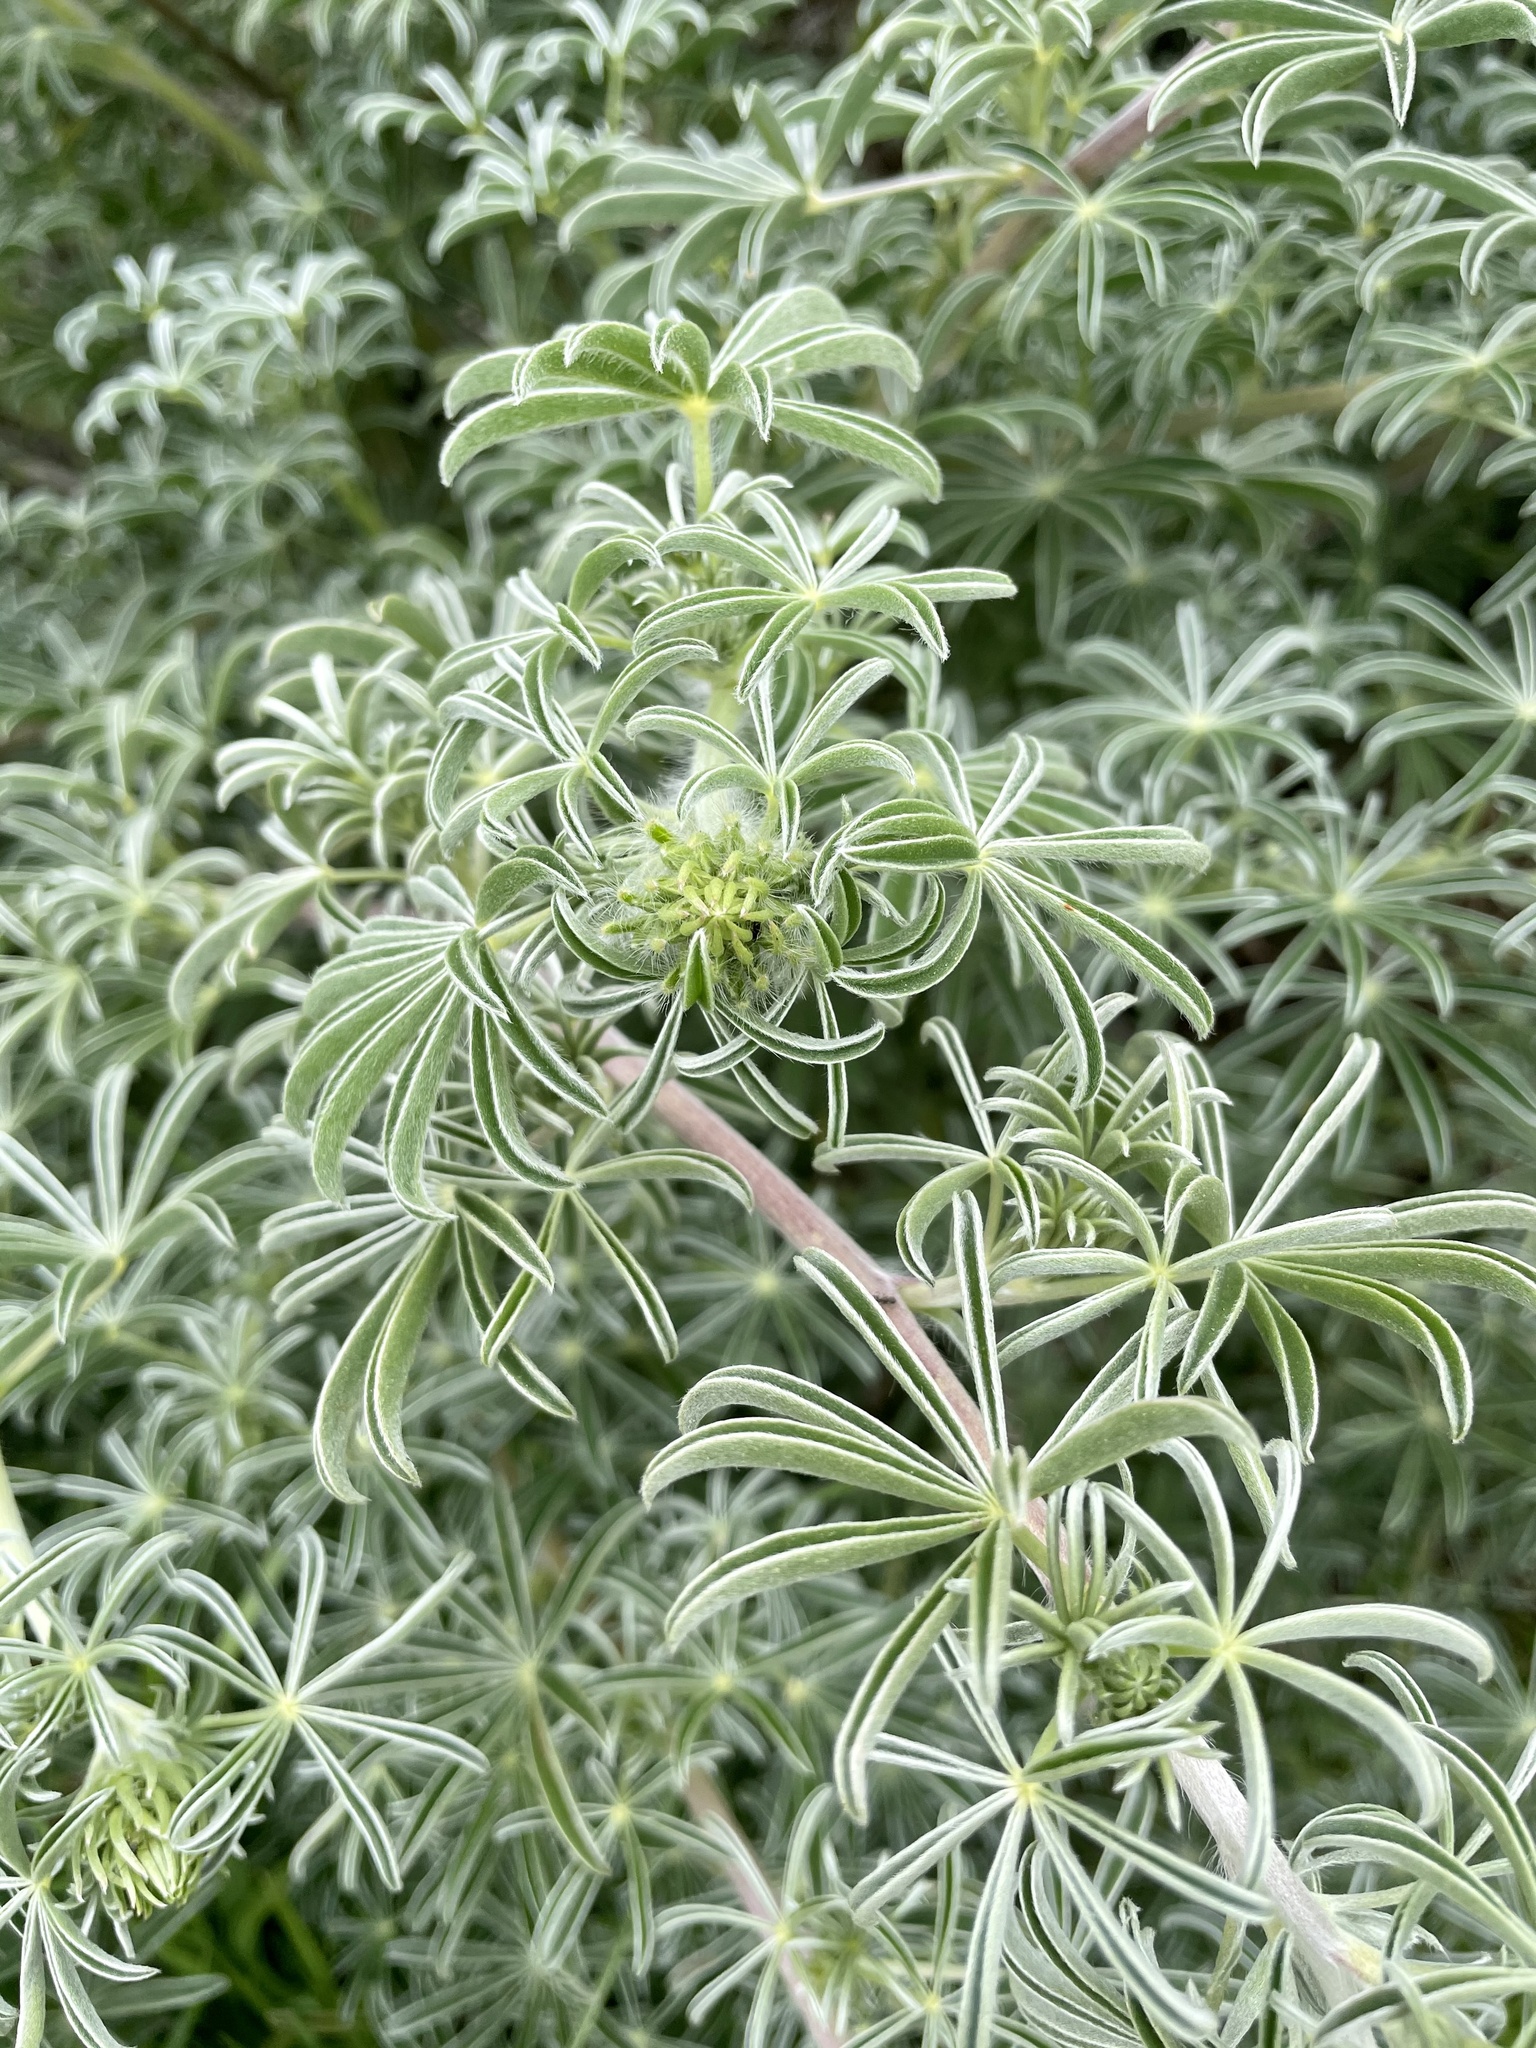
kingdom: Plantae
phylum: Tracheophyta
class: Magnoliopsida
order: Fabales
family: Fabaceae
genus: Lupinus
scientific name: Lupinus arboreus
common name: Yellow bush lupine
